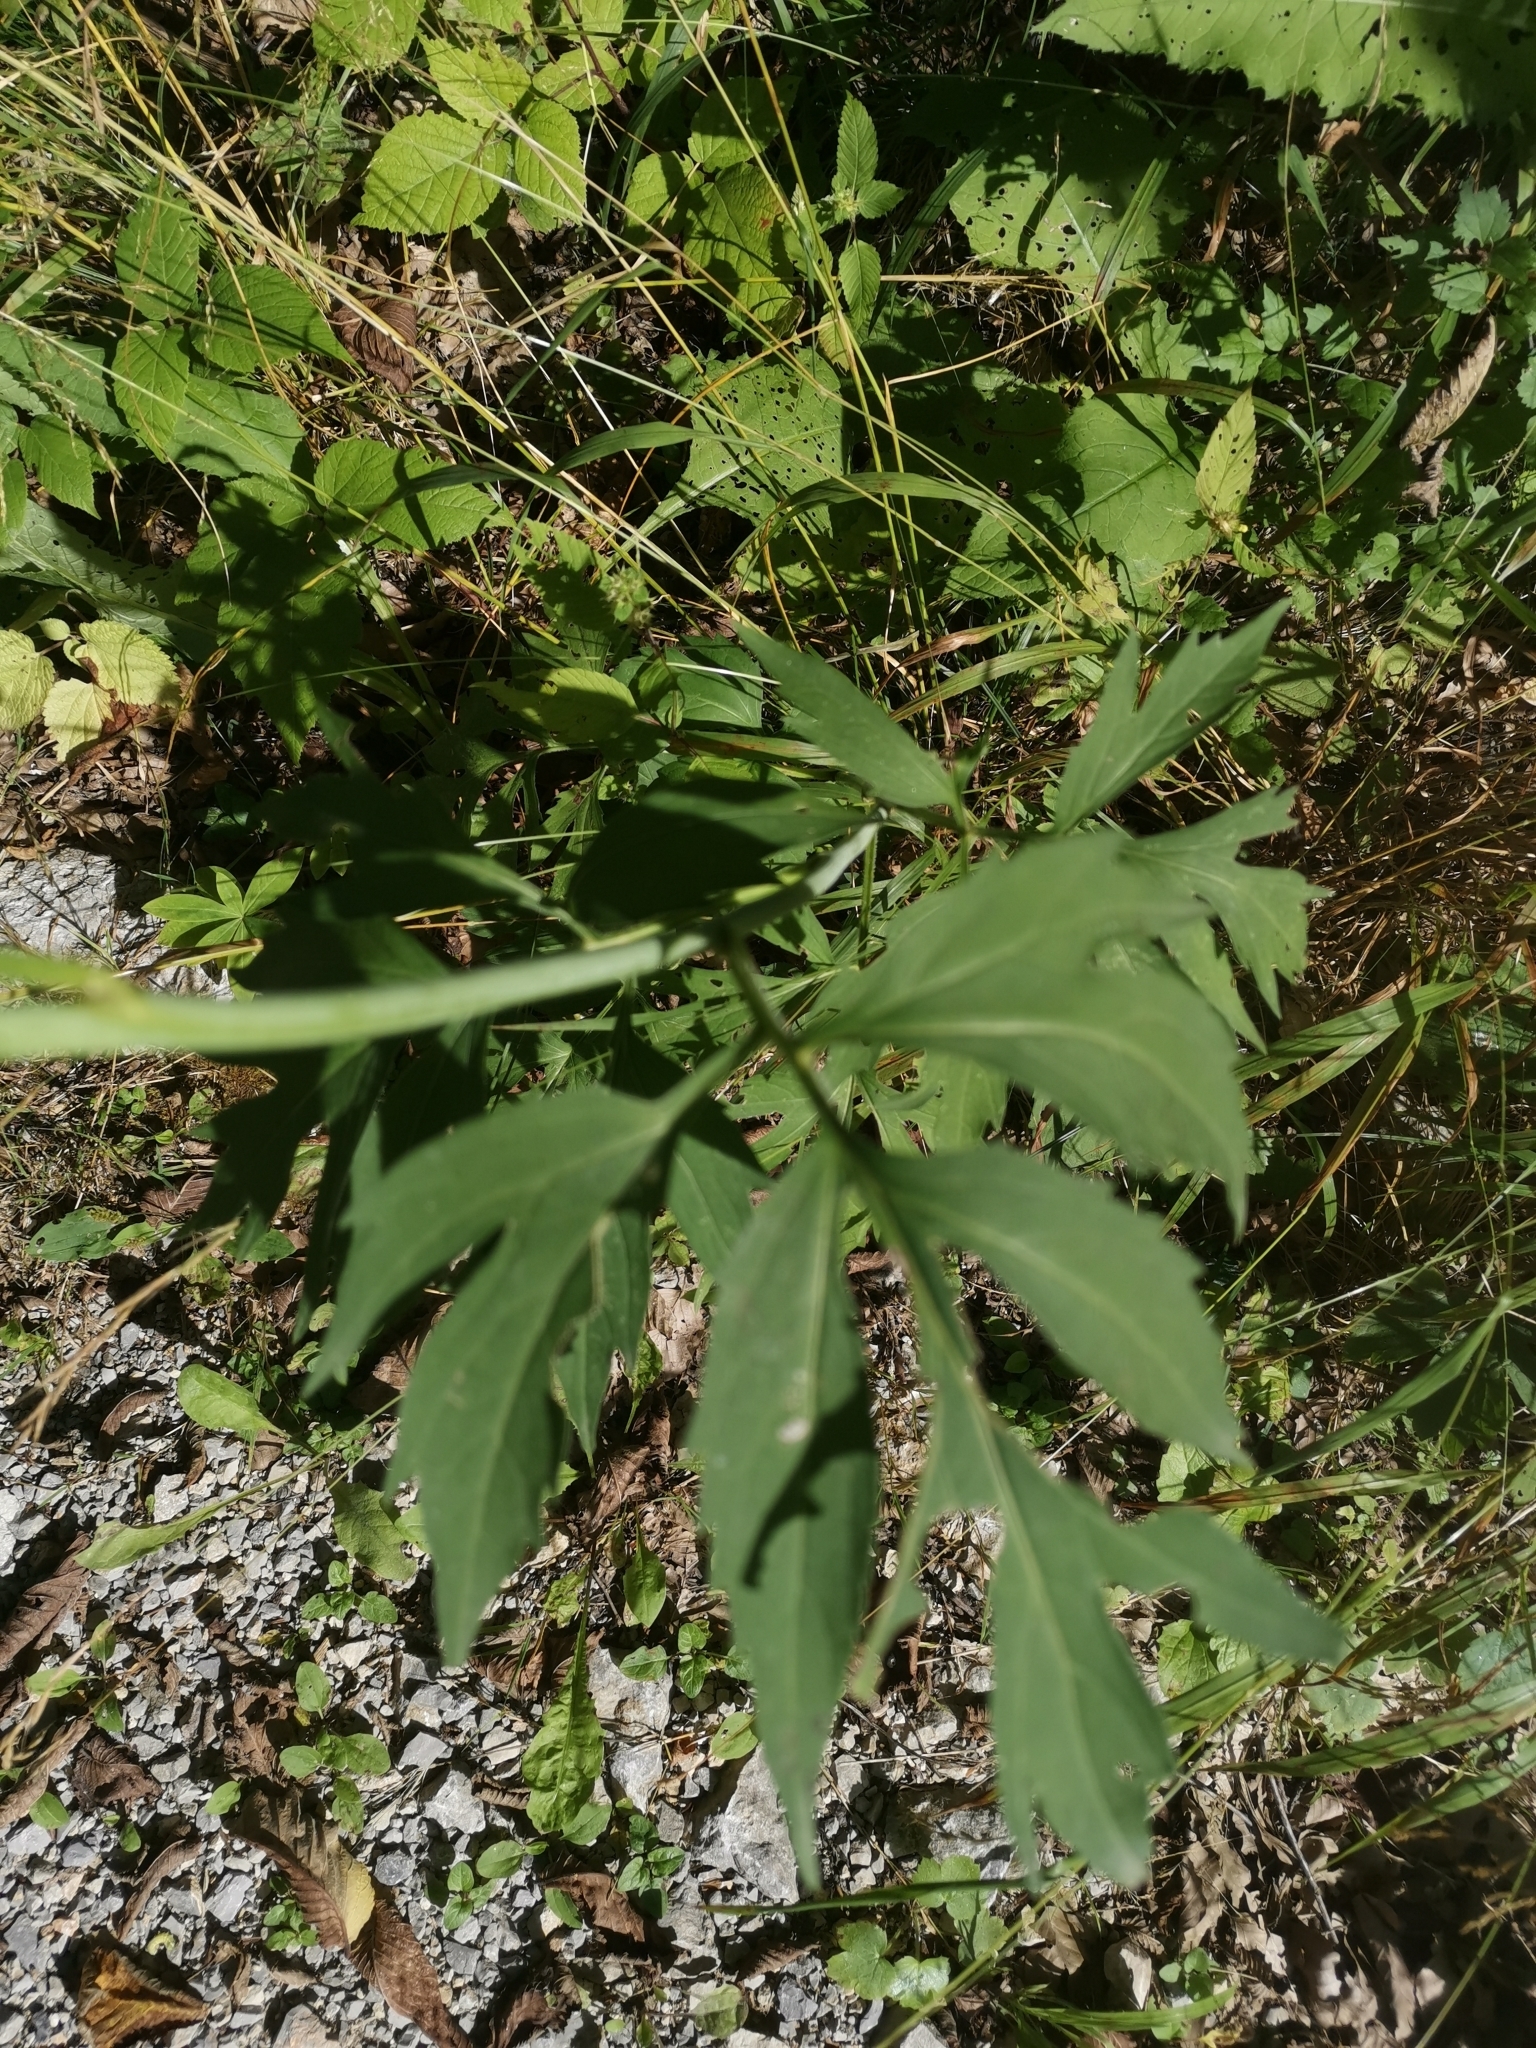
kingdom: Plantae
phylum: Tracheophyta
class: Magnoliopsida
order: Asterales
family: Asteraceae
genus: Rudbeckia
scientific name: Rudbeckia laciniata
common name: Coneflower
